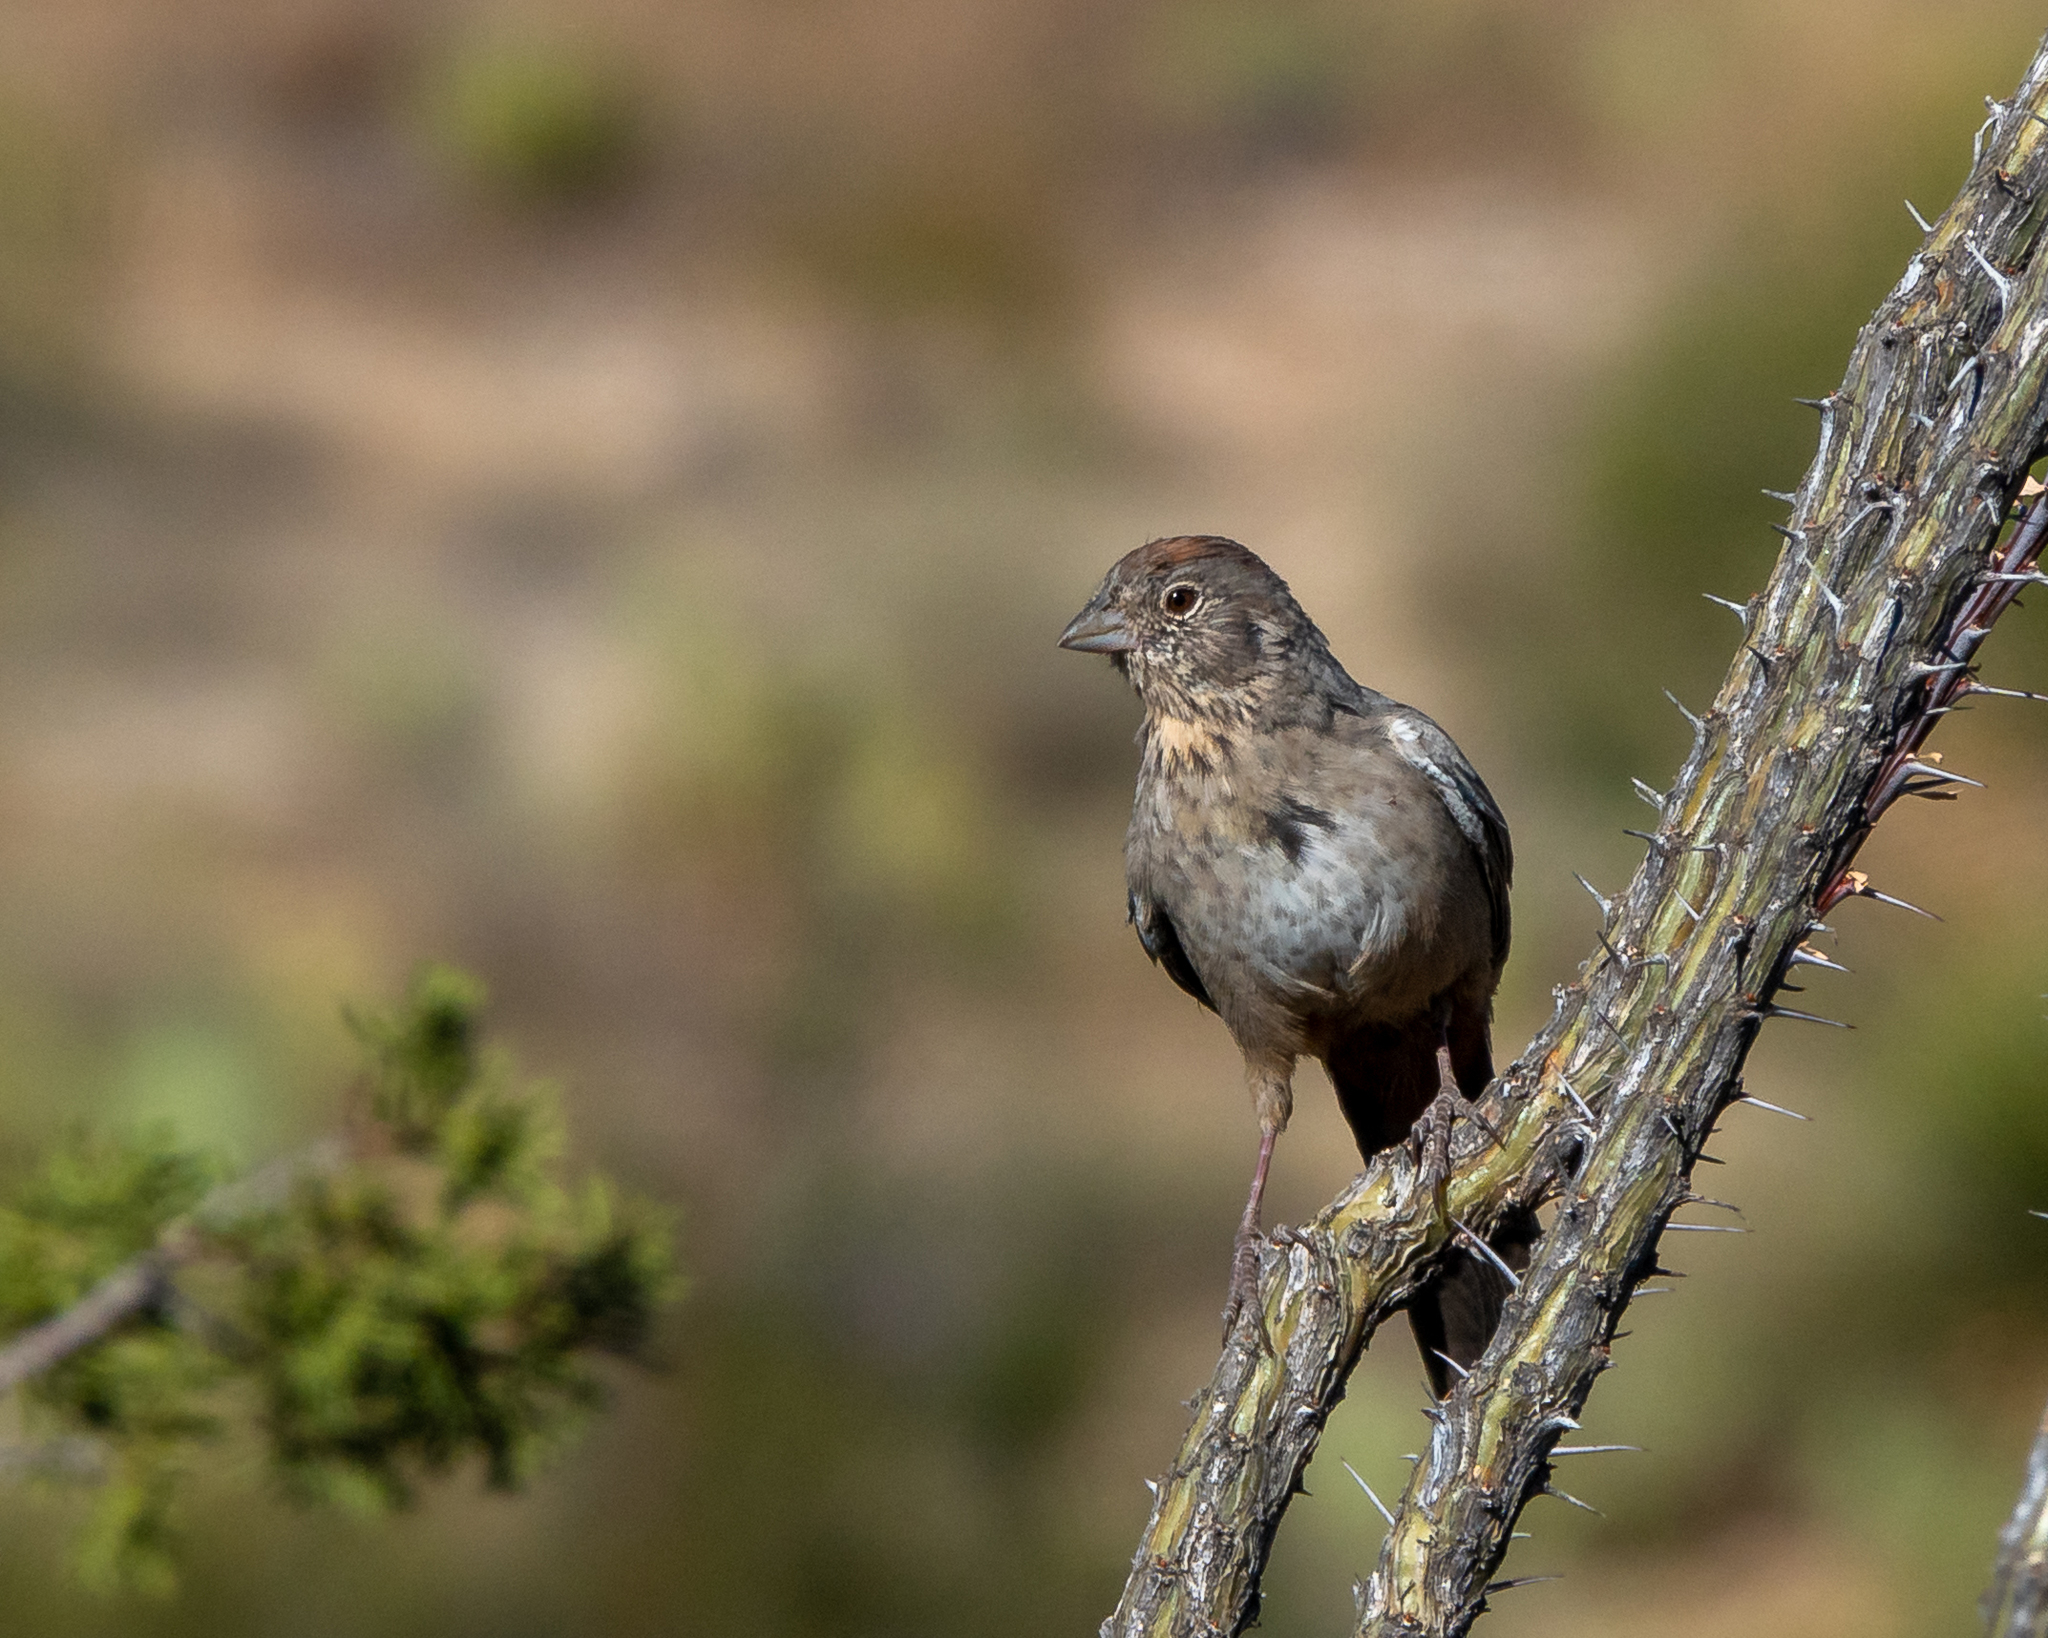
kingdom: Animalia
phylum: Chordata
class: Aves
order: Passeriformes
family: Passerellidae
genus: Melozone
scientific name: Melozone fusca
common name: Canyon towhee
